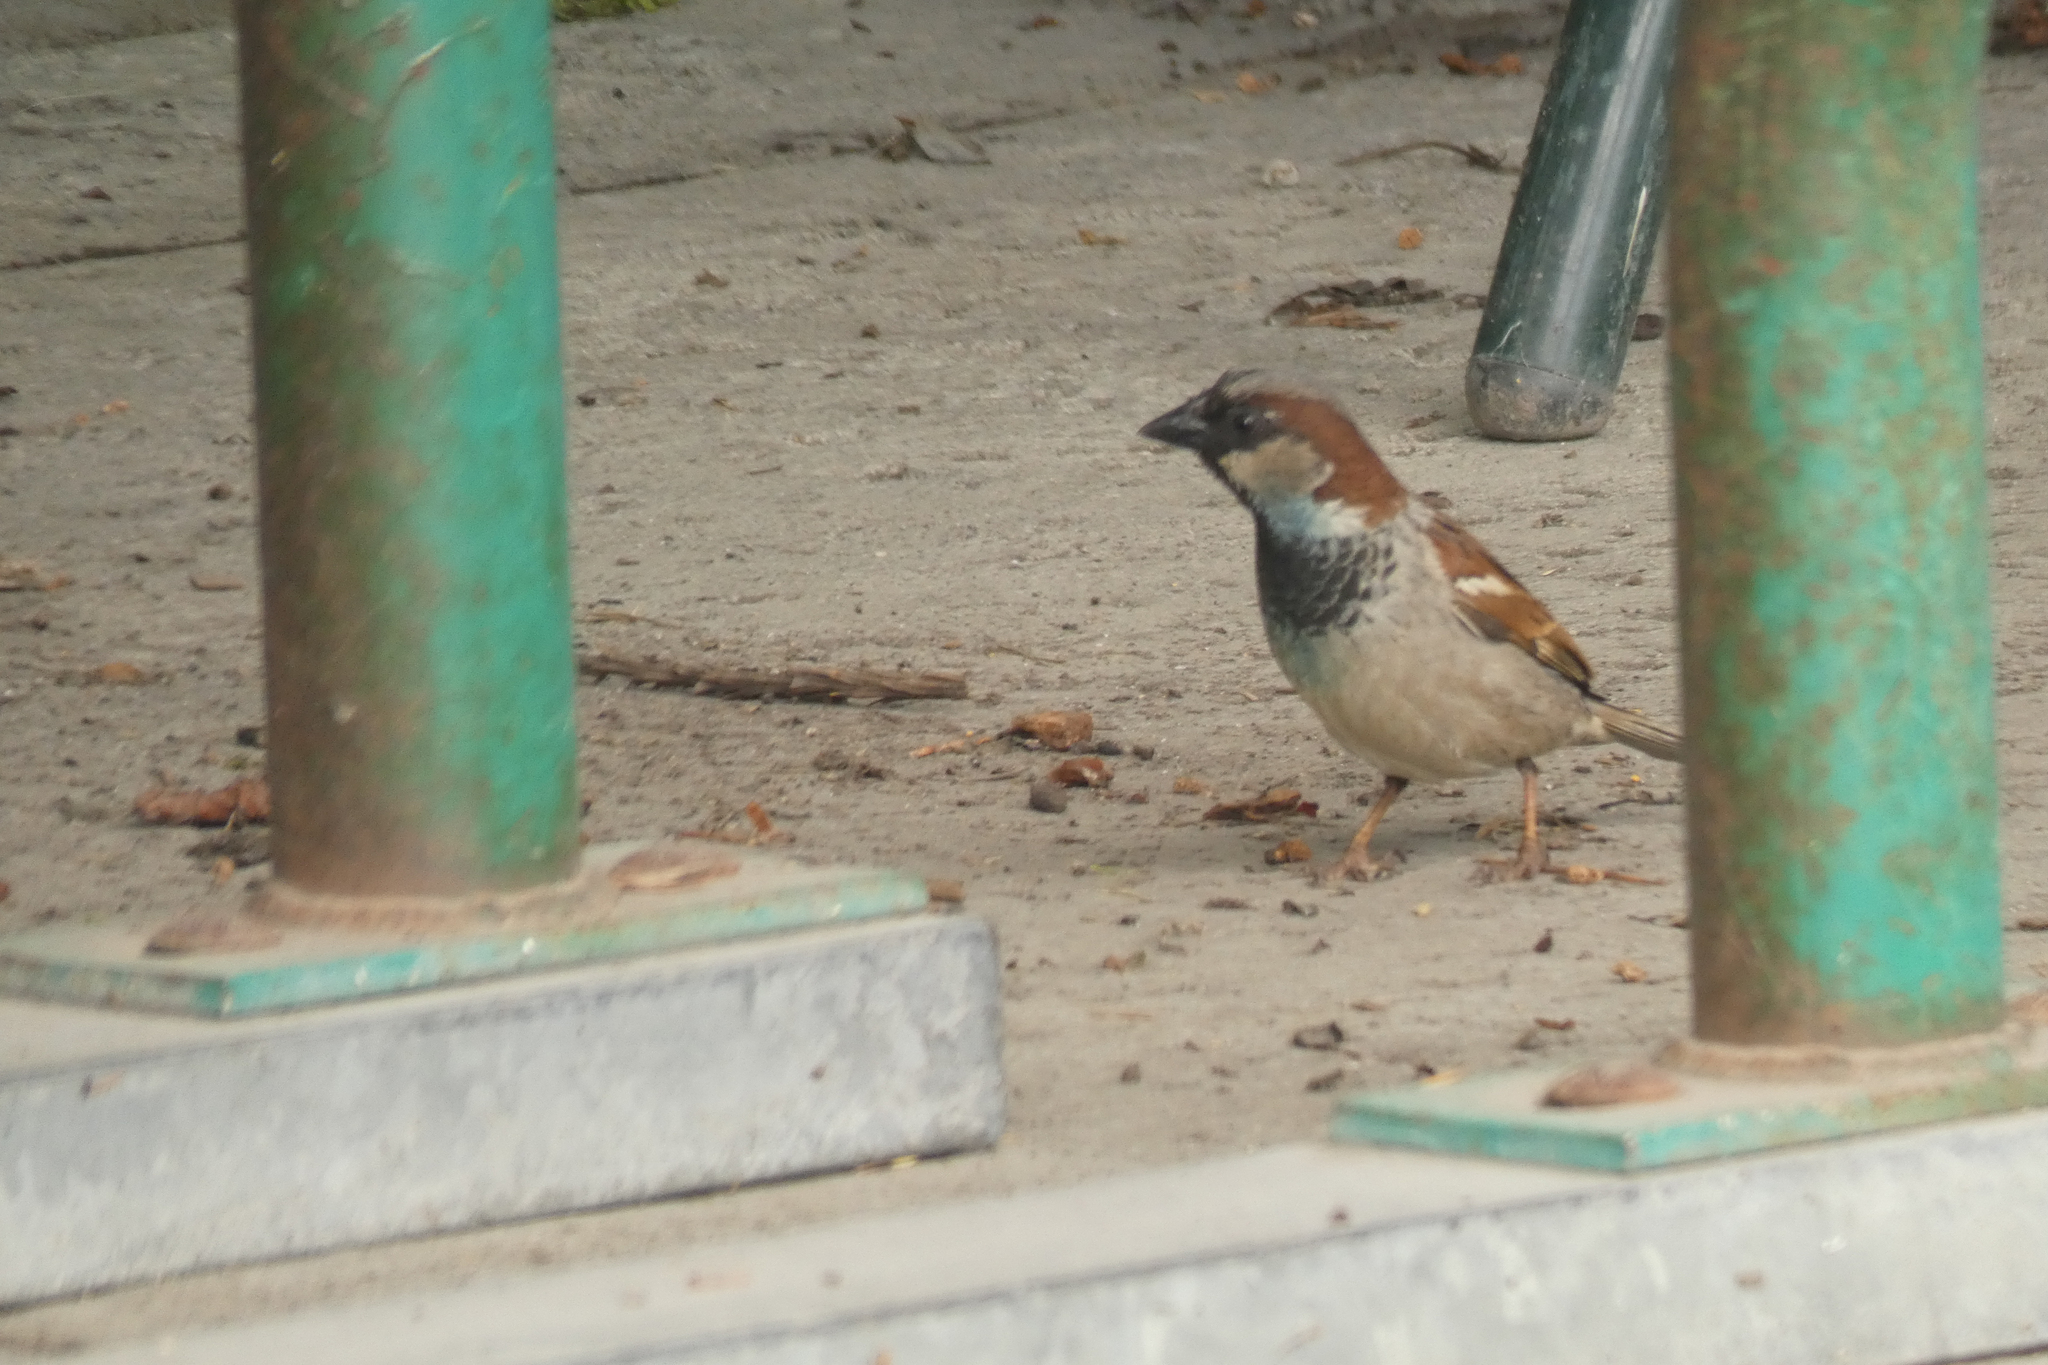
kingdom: Animalia
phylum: Chordata
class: Aves
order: Passeriformes
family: Passeridae
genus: Passer
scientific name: Passer domesticus
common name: House sparrow
